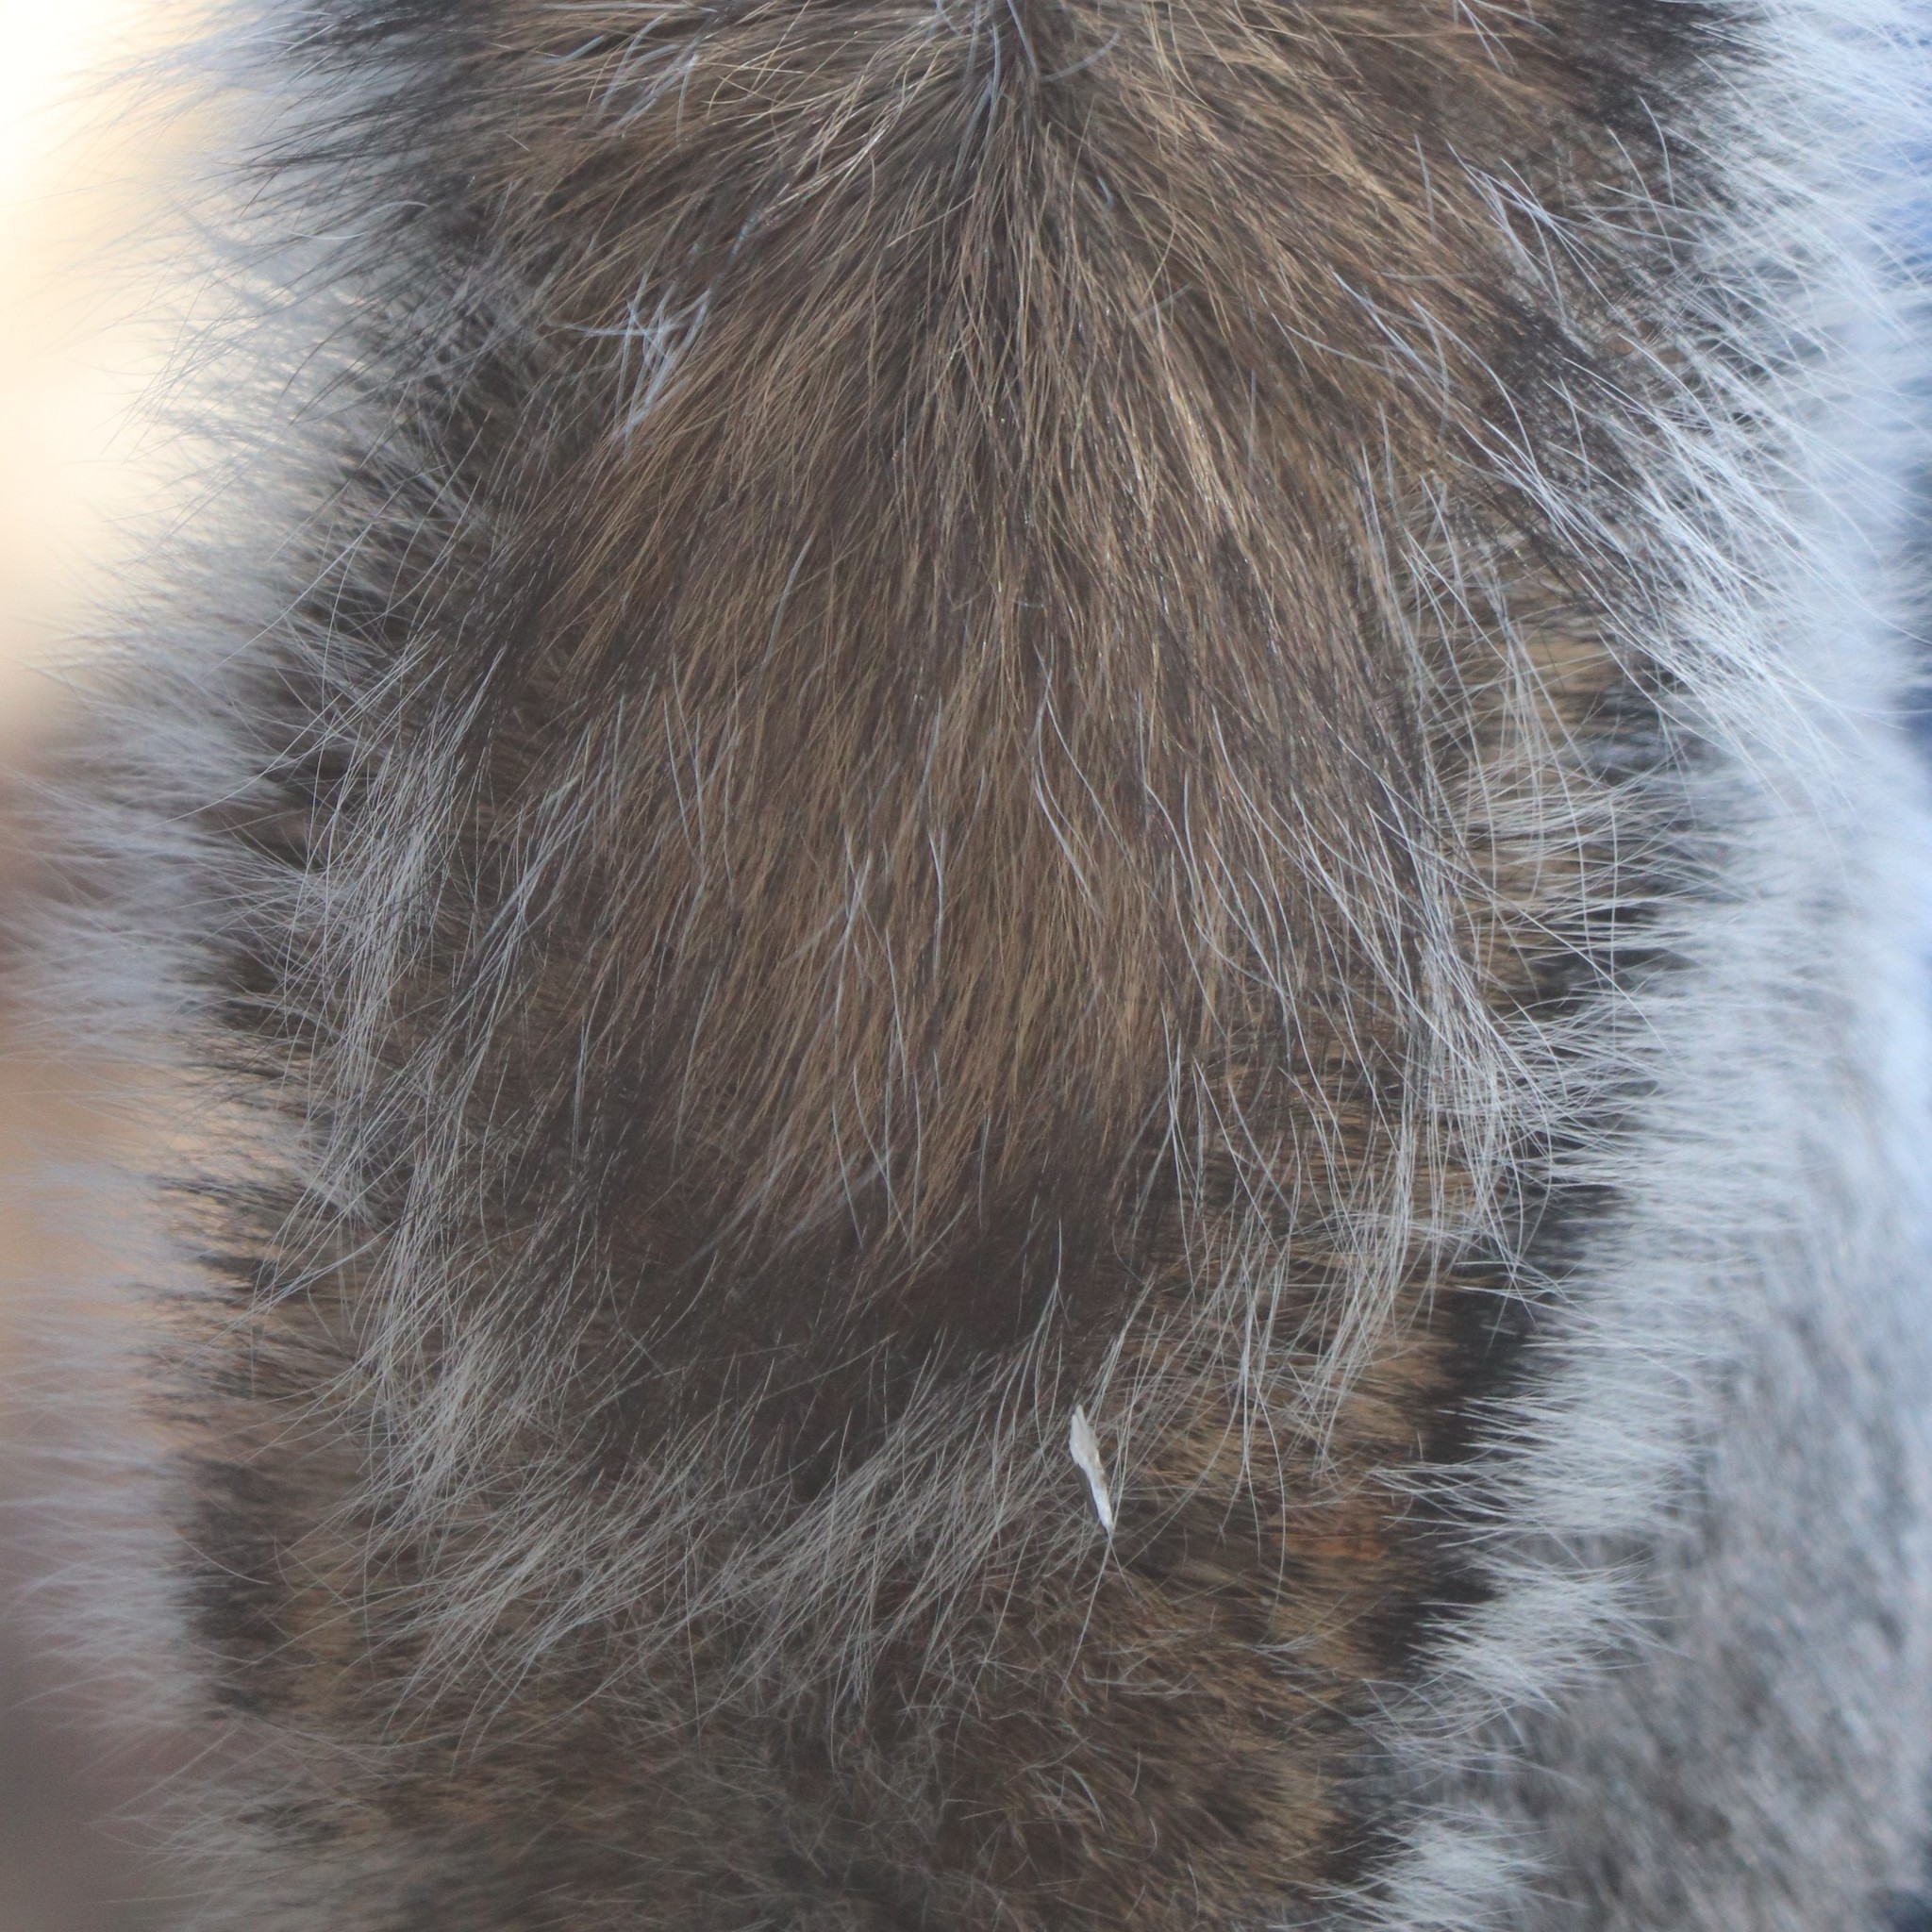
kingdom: Animalia
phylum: Chordata
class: Mammalia
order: Rodentia
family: Sciuridae
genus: Sciurus
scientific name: Sciurus carolinensis
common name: Eastern gray squirrel
